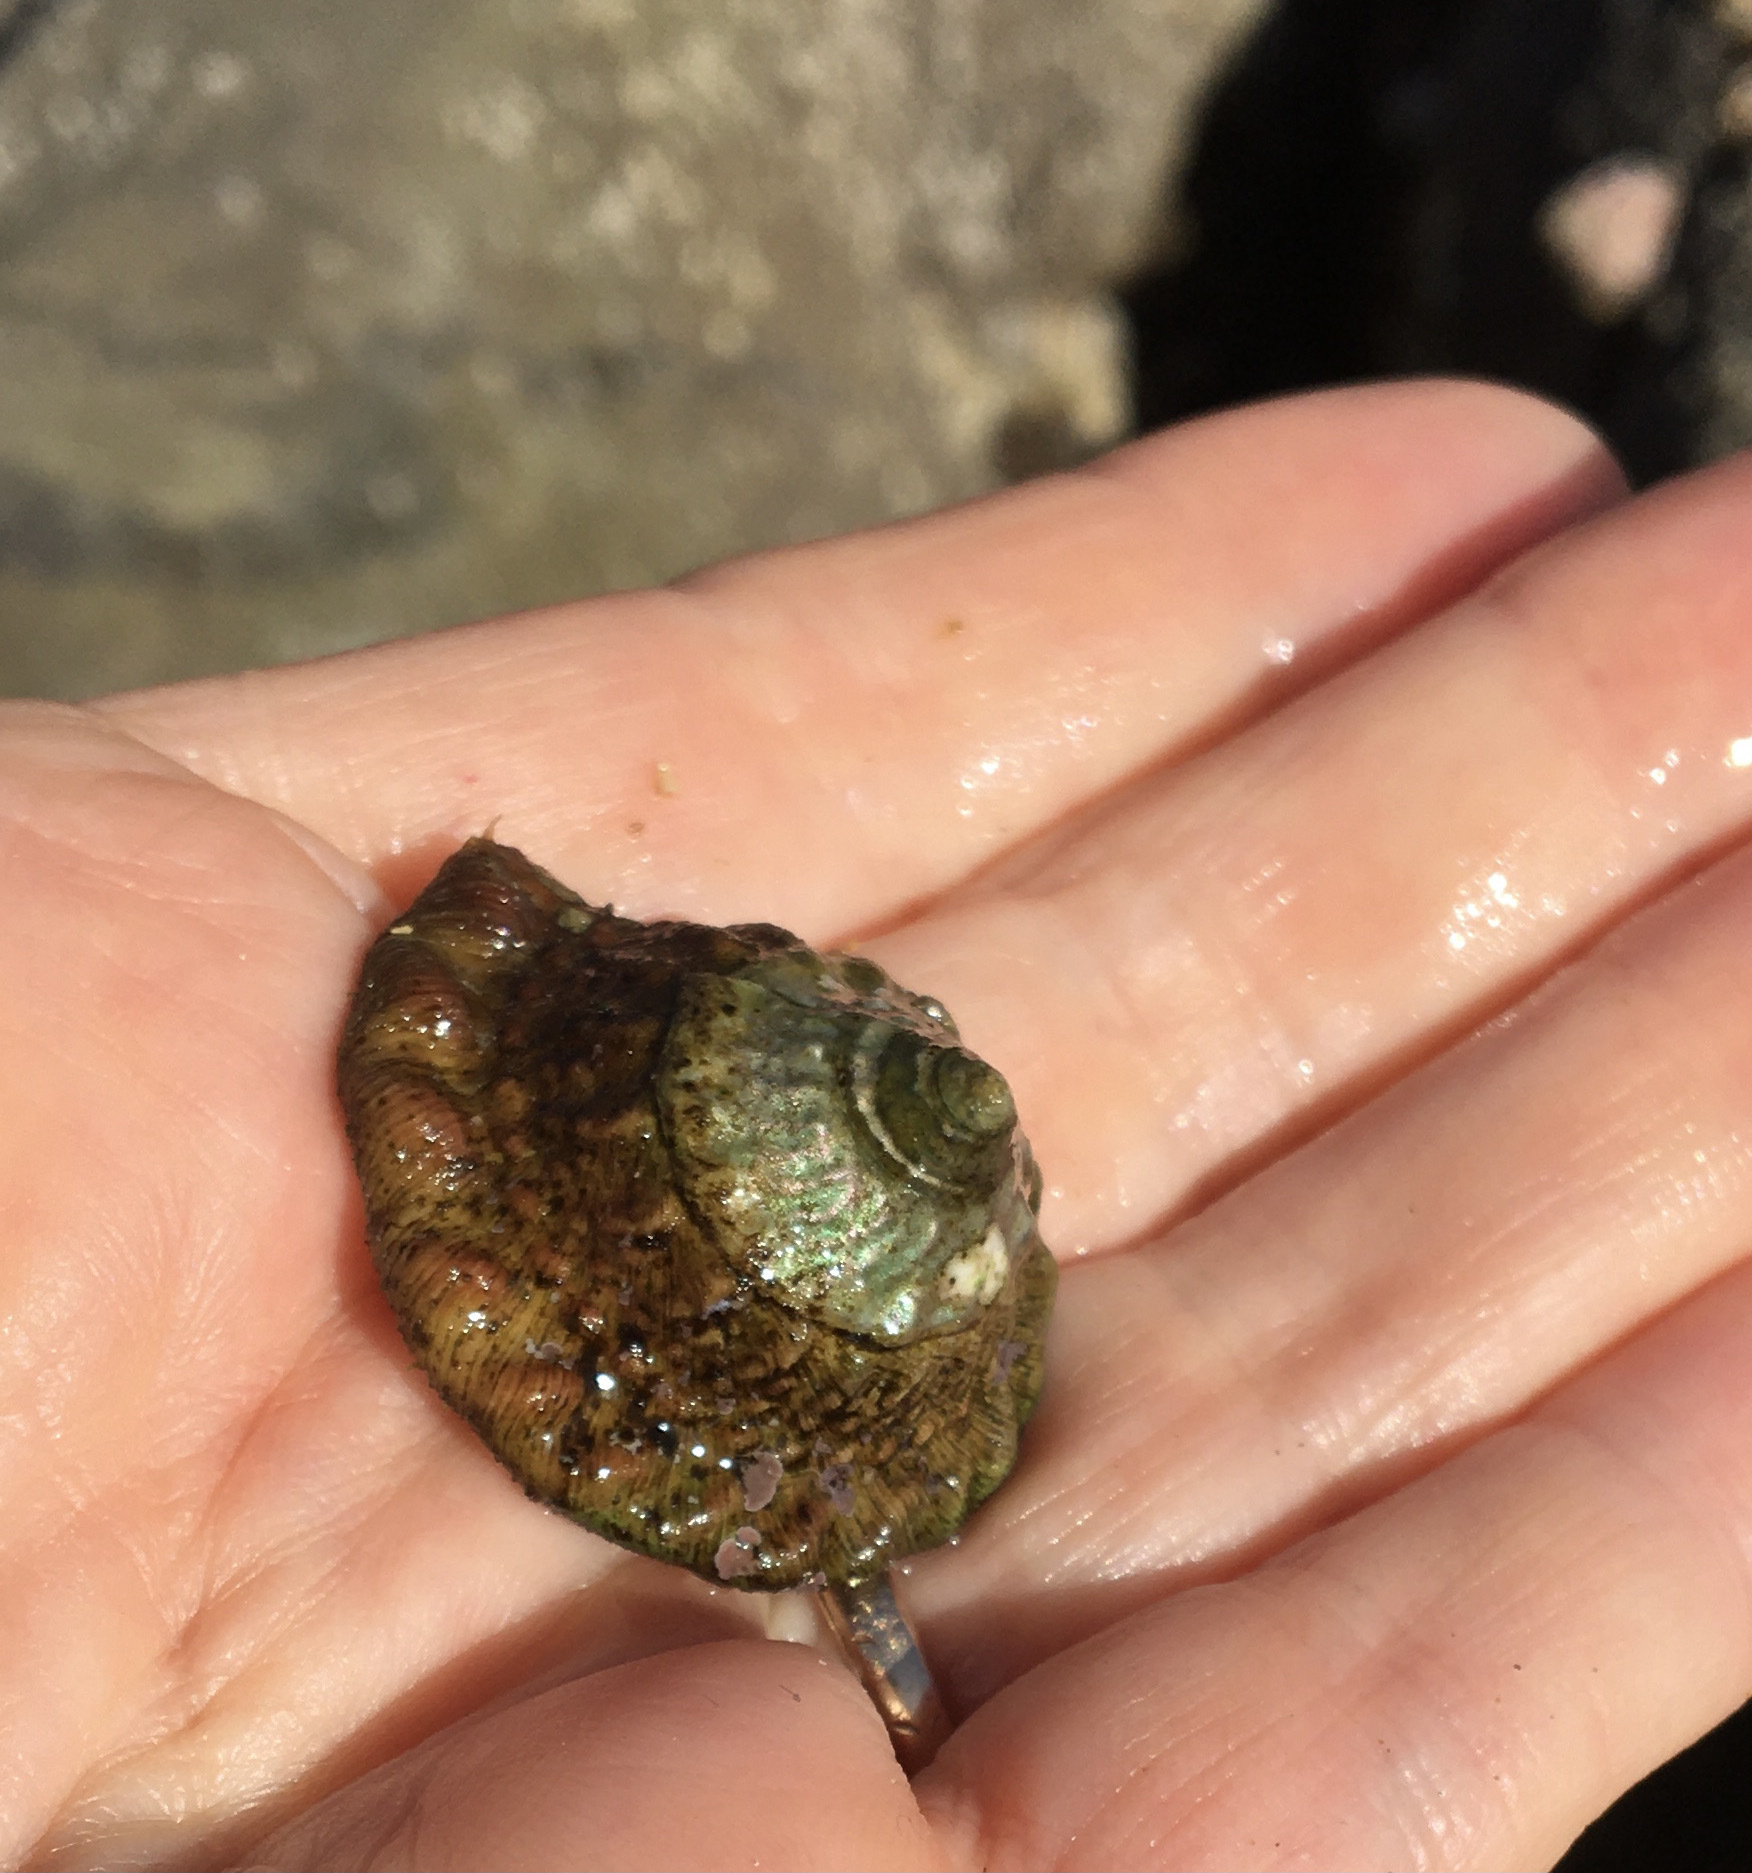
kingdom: Animalia
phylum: Mollusca
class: Gastropoda
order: Trochida
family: Turbinidae
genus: Megastraea
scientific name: Megastraea undosa
